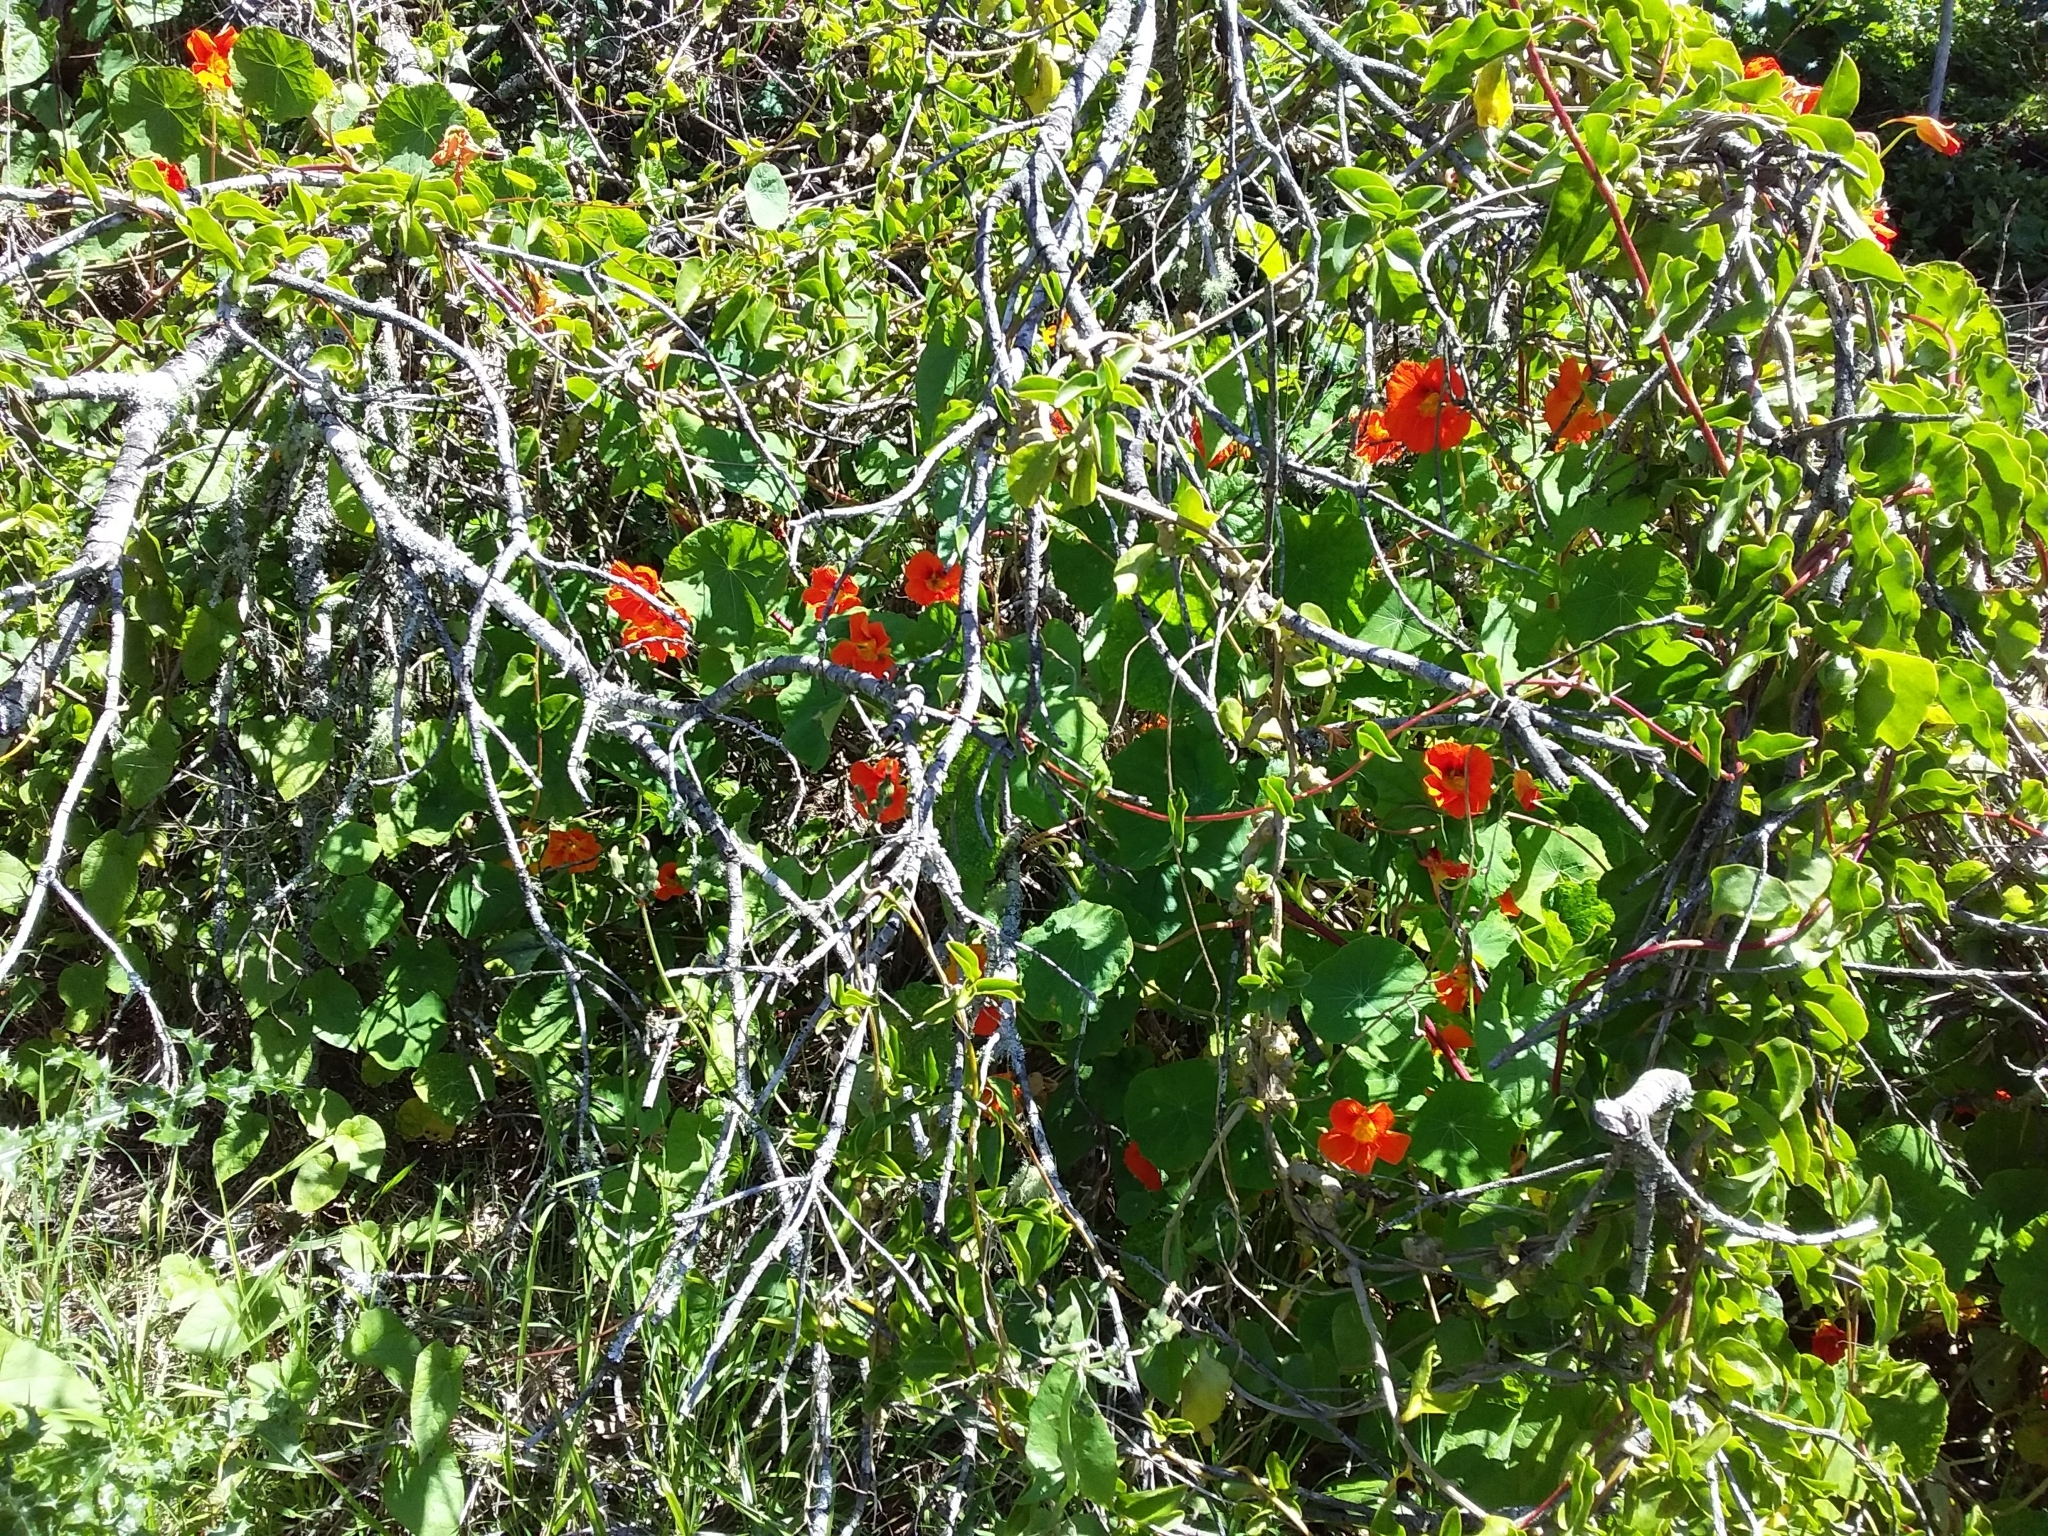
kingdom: Plantae
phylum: Tracheophyta
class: Magnoliopsida
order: Brassicales
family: Tropaeolaceae
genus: Tropaeolum
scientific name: Tropaeolum majus
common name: Nasturtium
